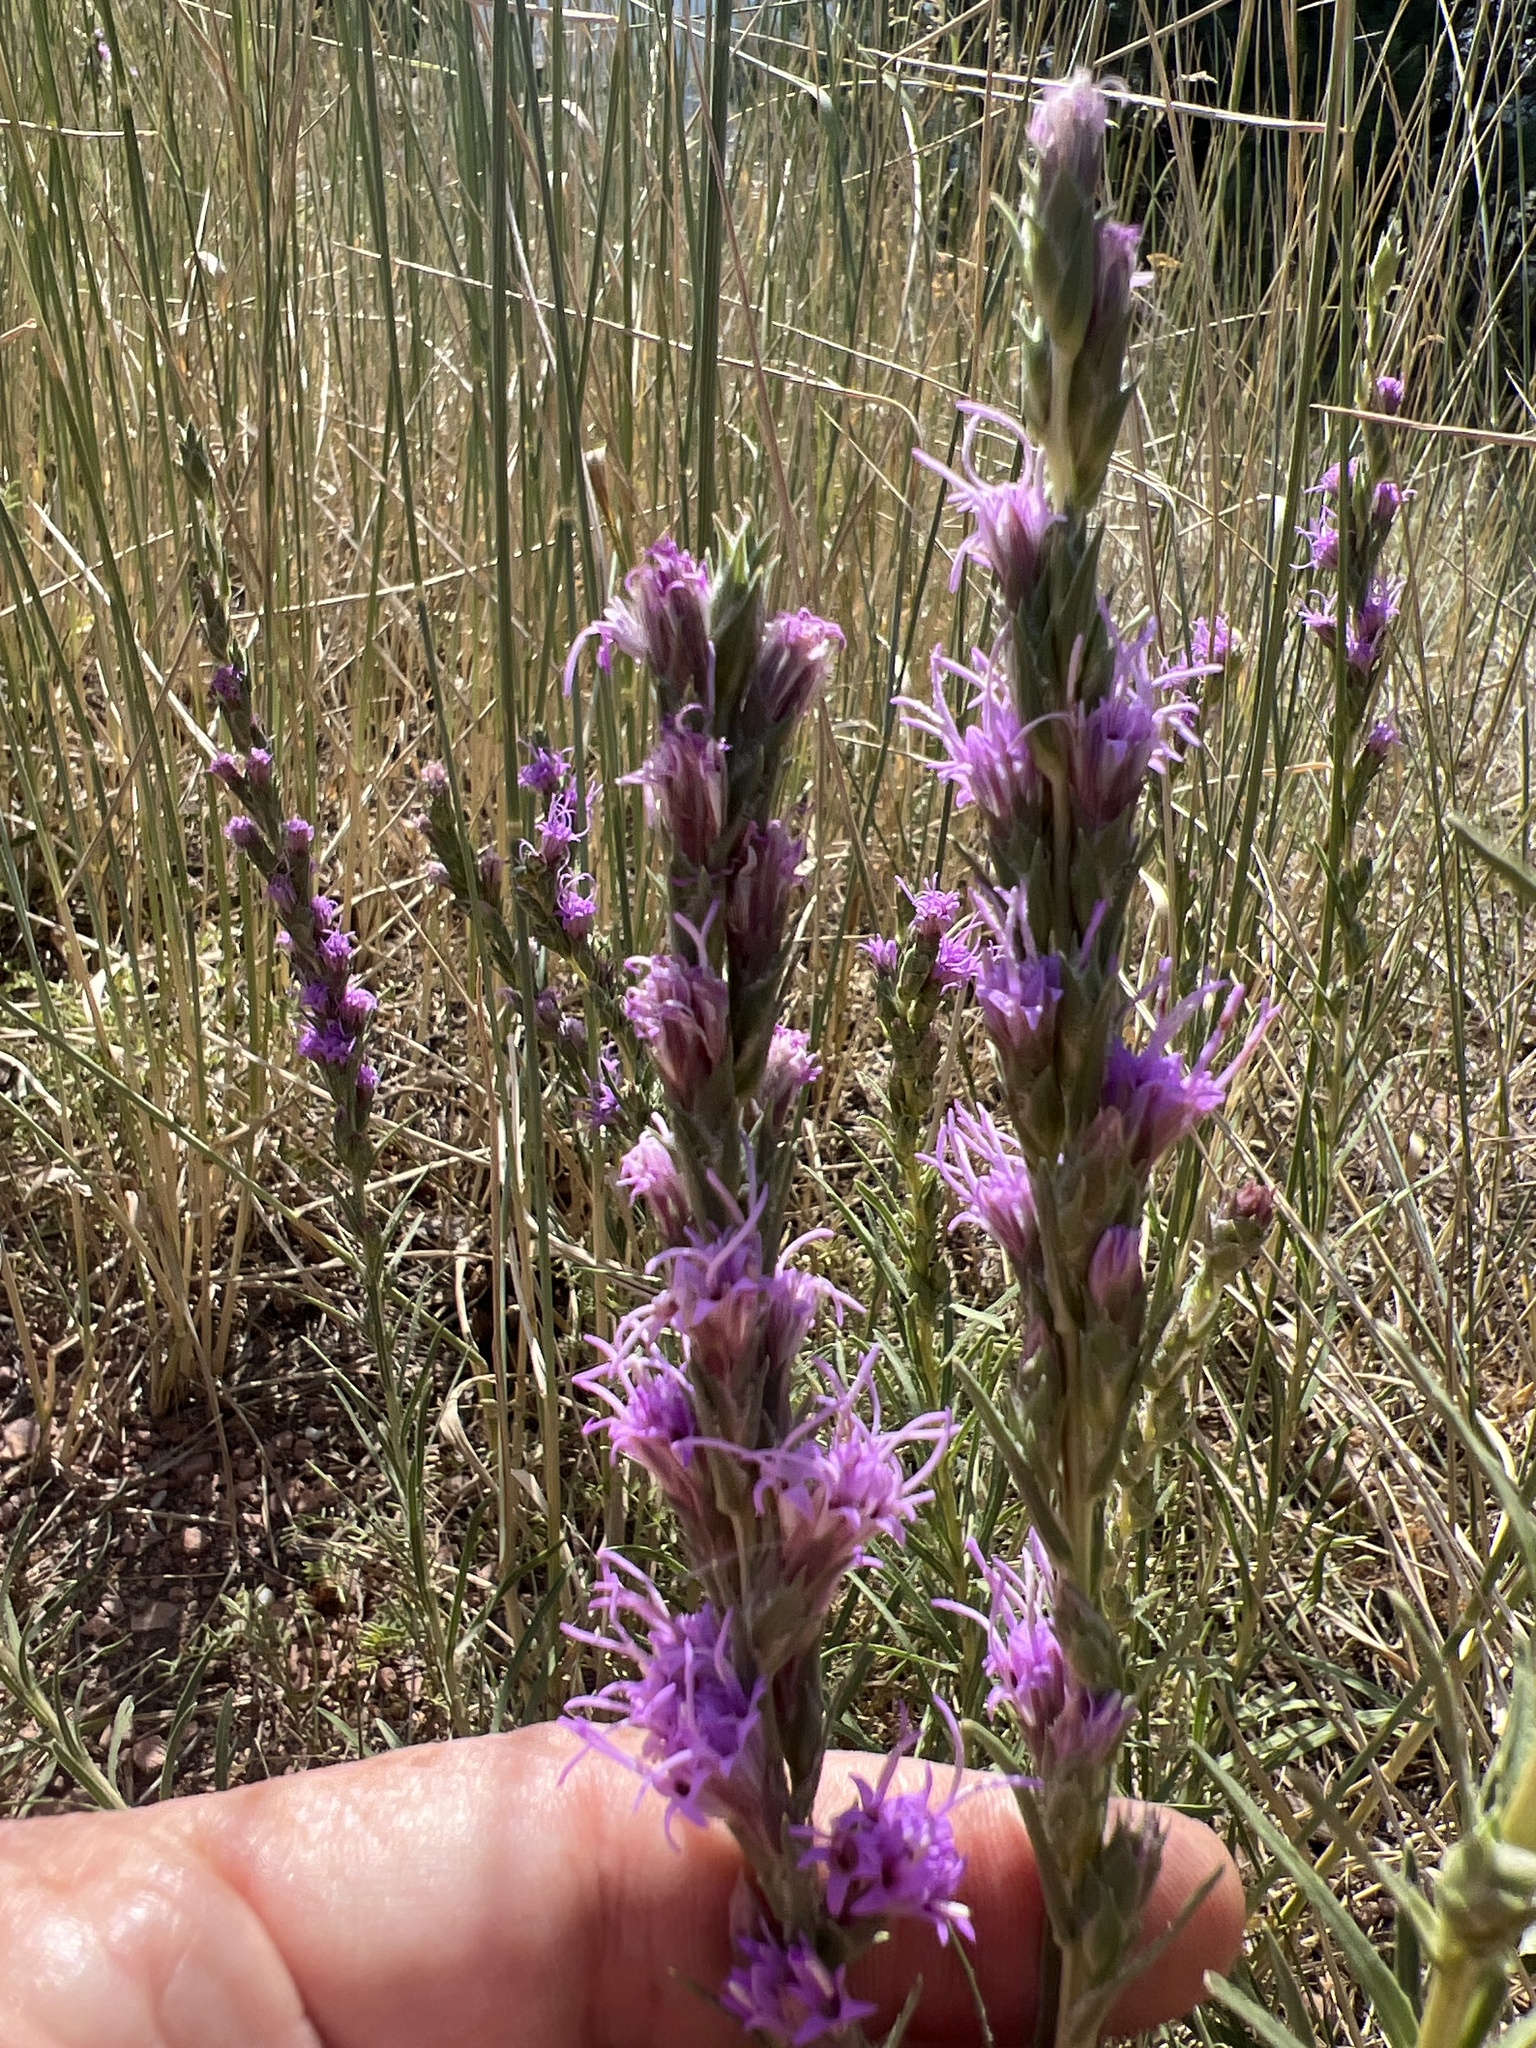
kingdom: Plantae
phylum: Tracheophyta
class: Magnoliopsida
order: Asterales
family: Asteraceae
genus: Liatris
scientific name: Liatris punctata
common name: Dotted gayfeather
